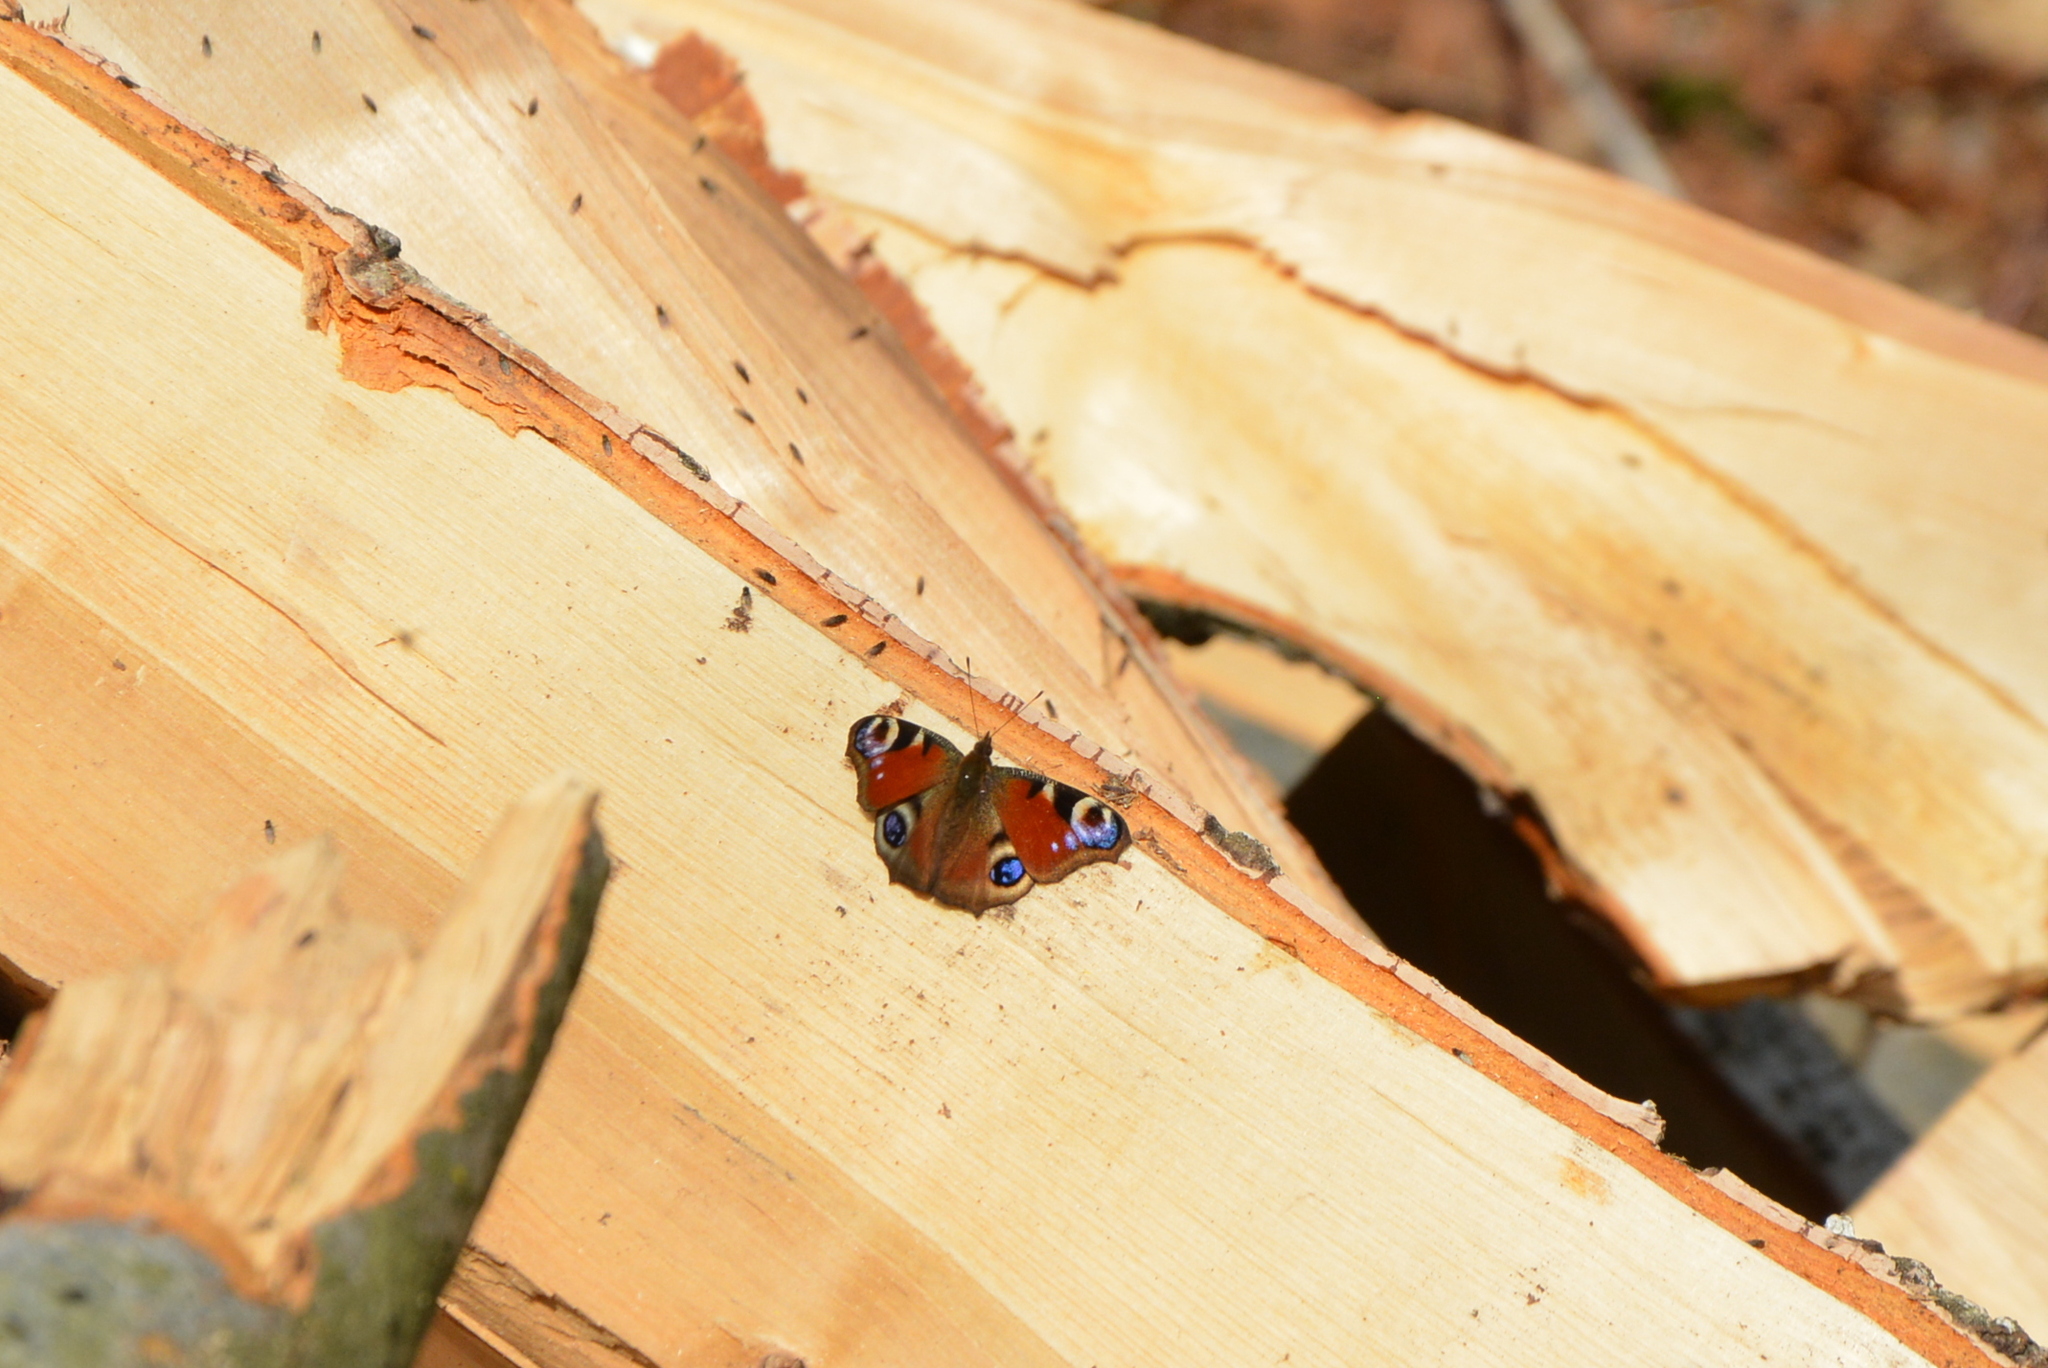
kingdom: Animalia
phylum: Arthropoda
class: Insecta
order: Lepidoptera
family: Nymphalidae
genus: Aglais
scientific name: Aglais io
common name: Peacock
